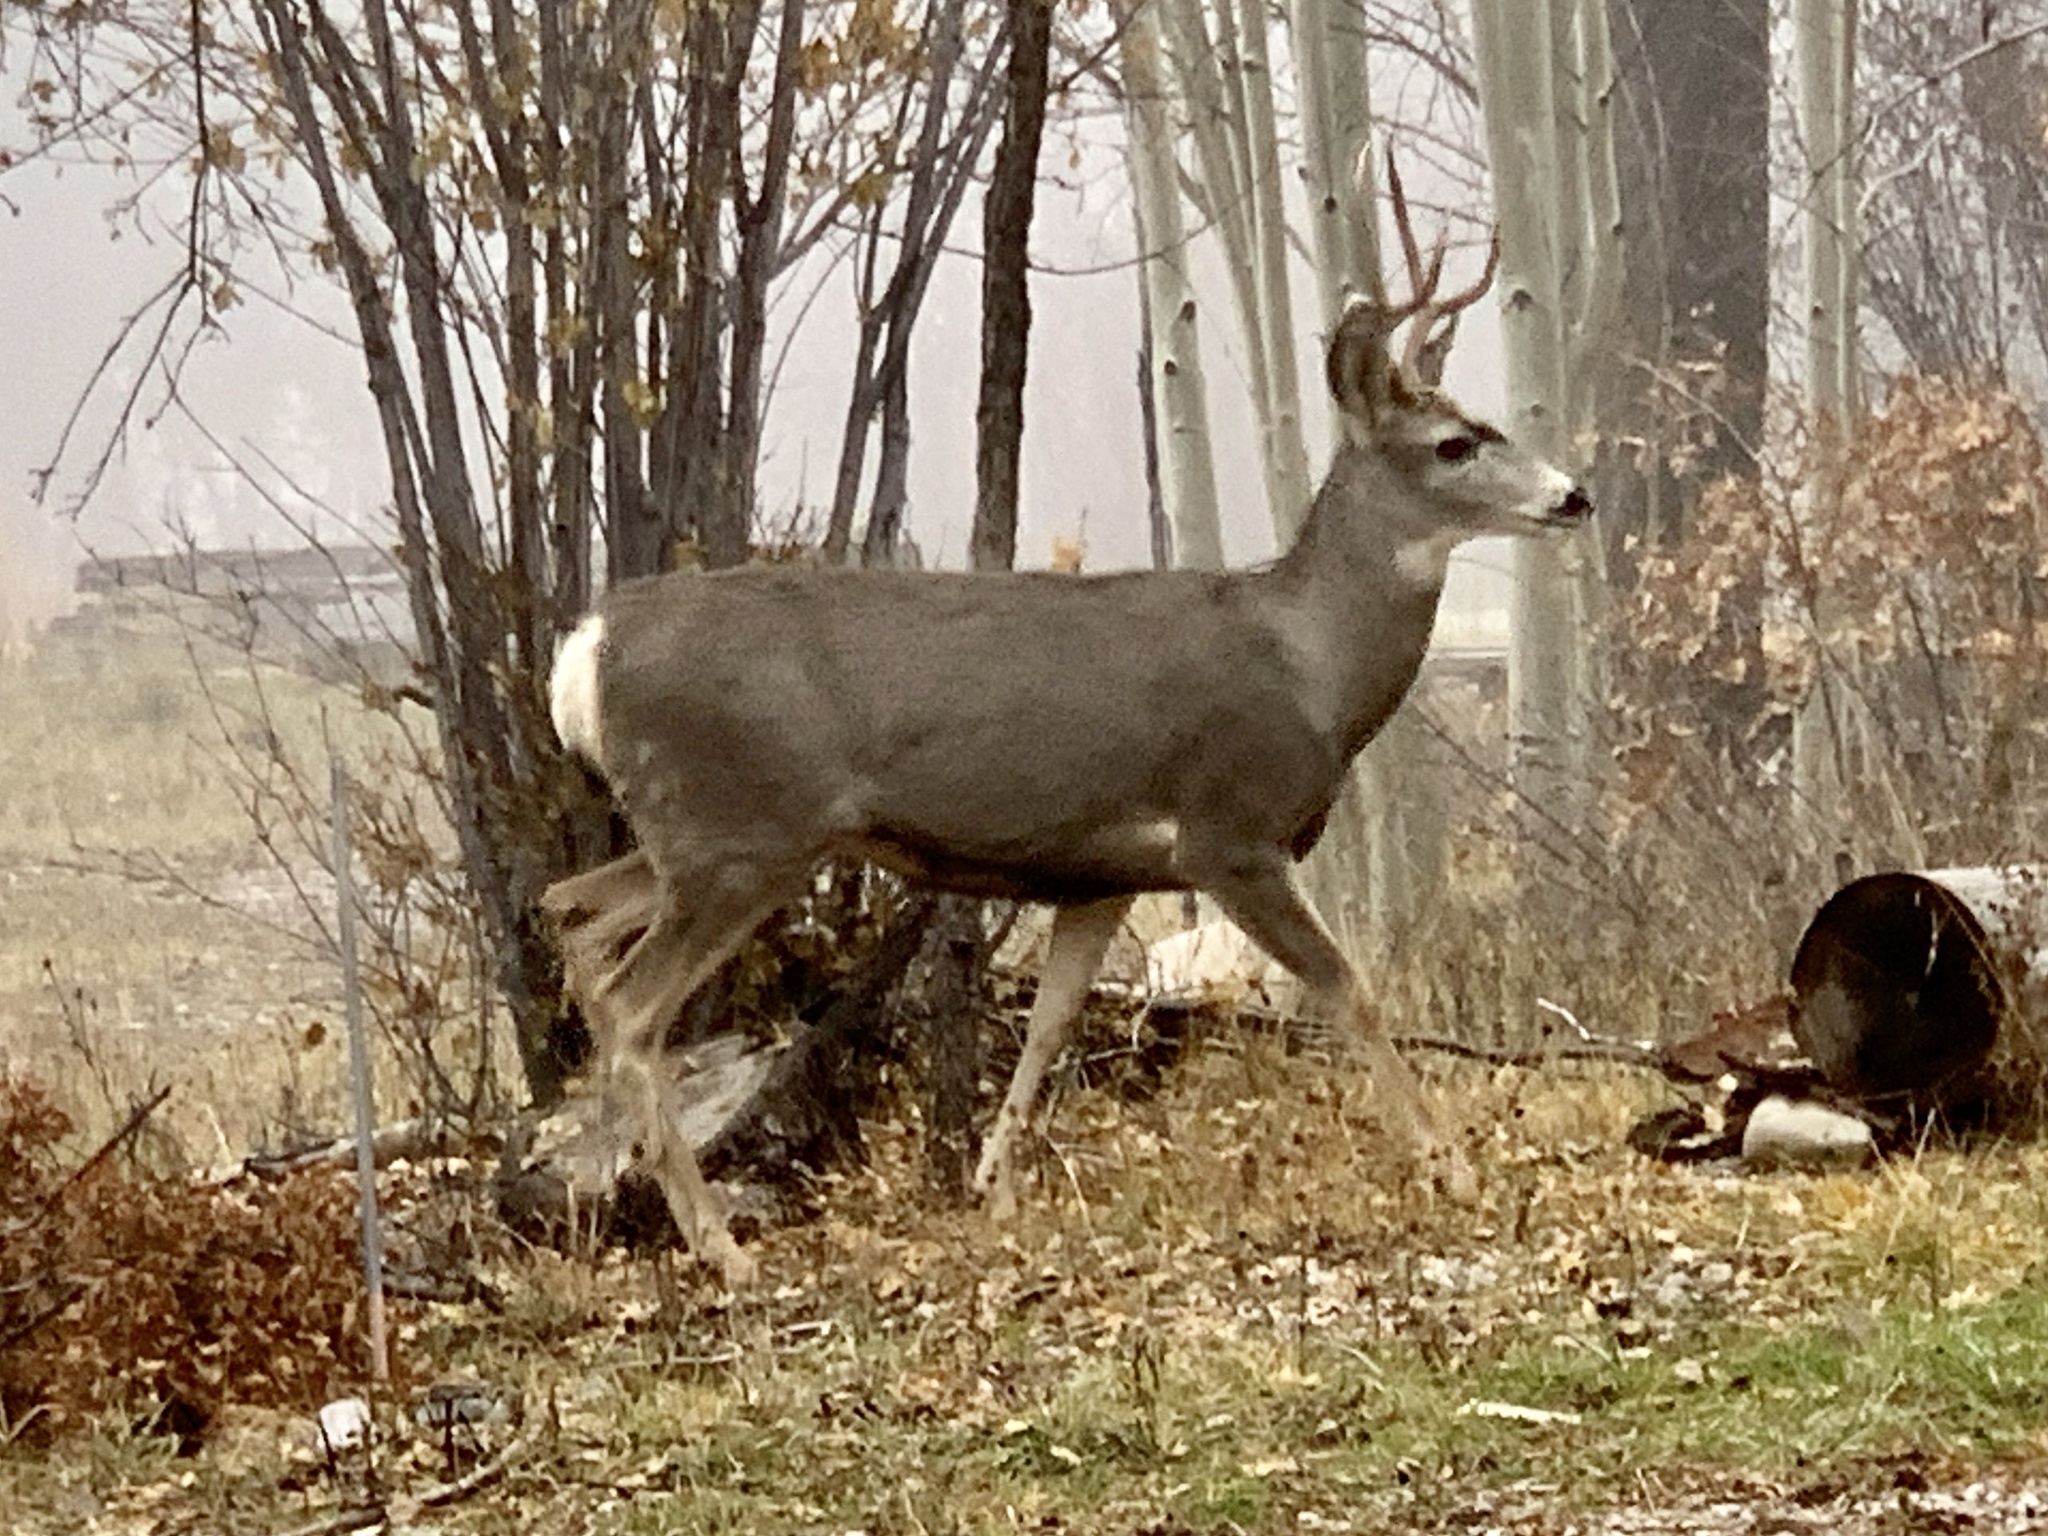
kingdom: Animalia
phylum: Chordata
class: Mammalia
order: Artiodactyla
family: Cervidae
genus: Odocoileus
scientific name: Odocoileus hemionus
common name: Mule deer
